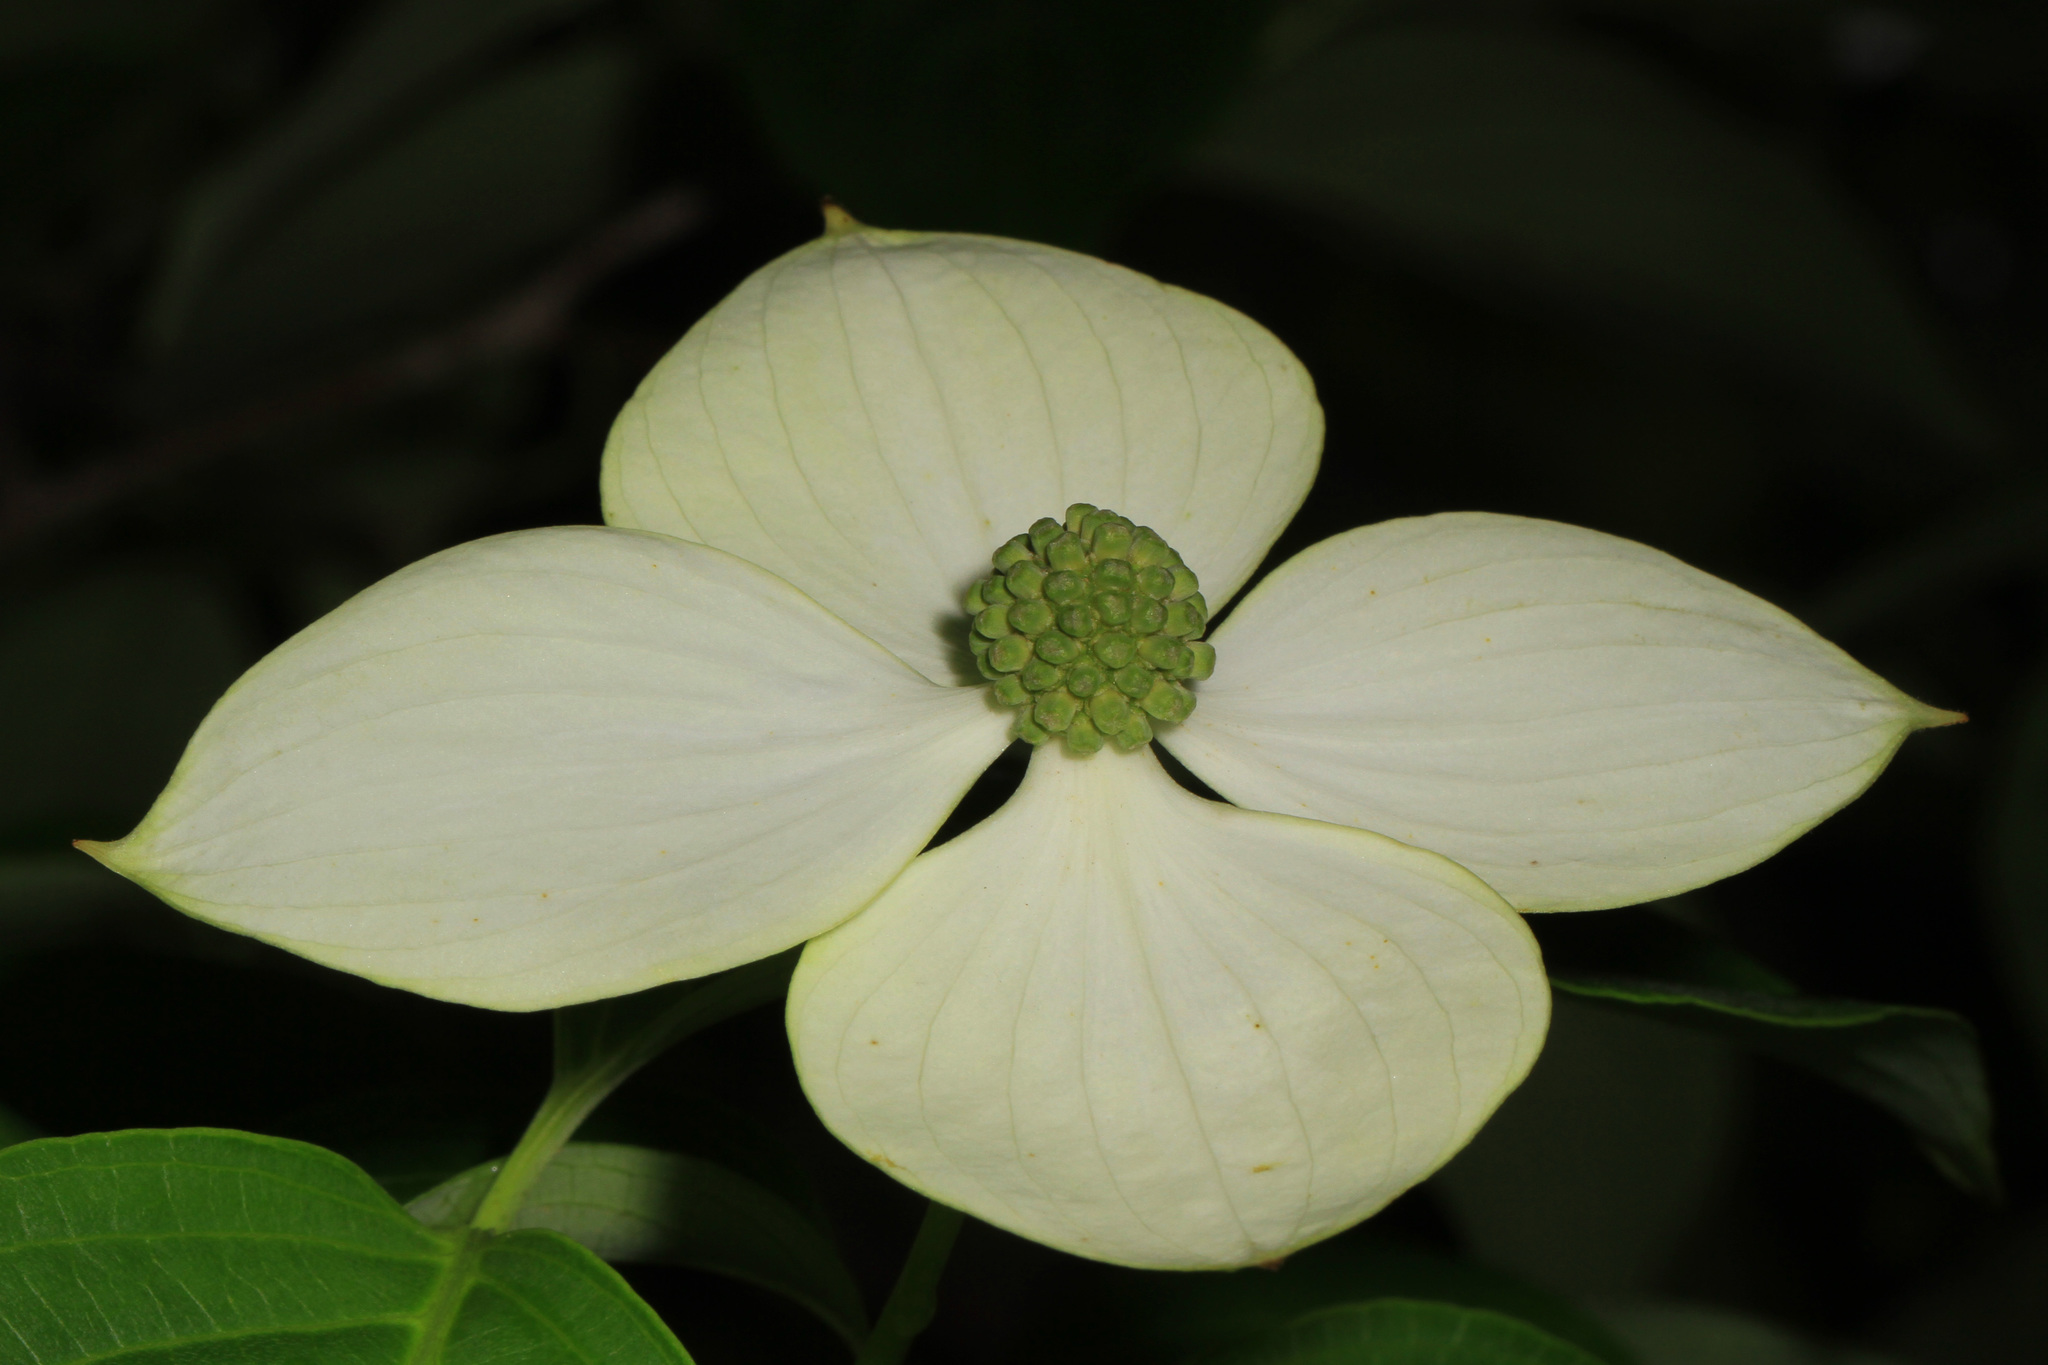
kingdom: Plantae
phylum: Tracheophyta
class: Magnoliopsida
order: Cornales
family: Cornaceae
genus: Cornus
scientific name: Cornus kousa
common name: Japanese dogwood
